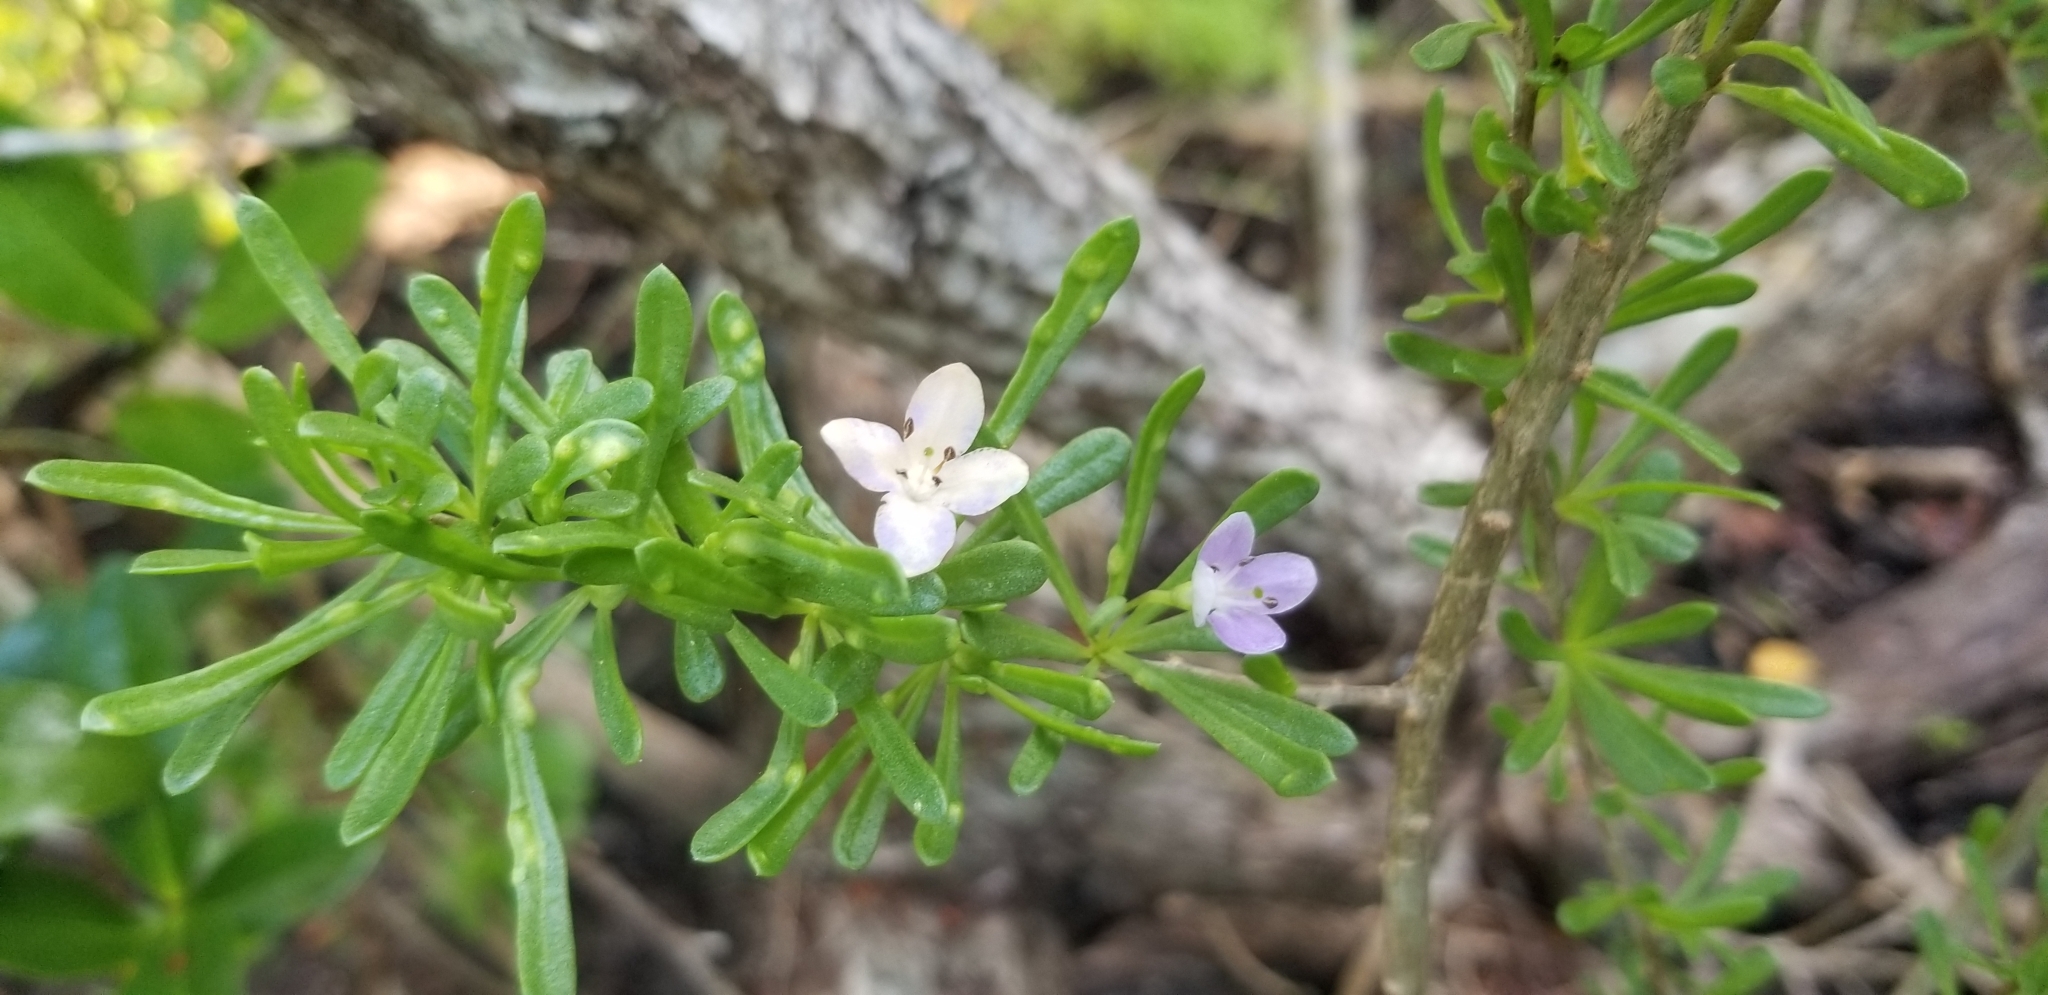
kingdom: Plantae
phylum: Tracheophyta
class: Magnoliopsida
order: Solanales
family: Solanaceae
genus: Lycium
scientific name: Lycium carolinianum
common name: Christmasberry
